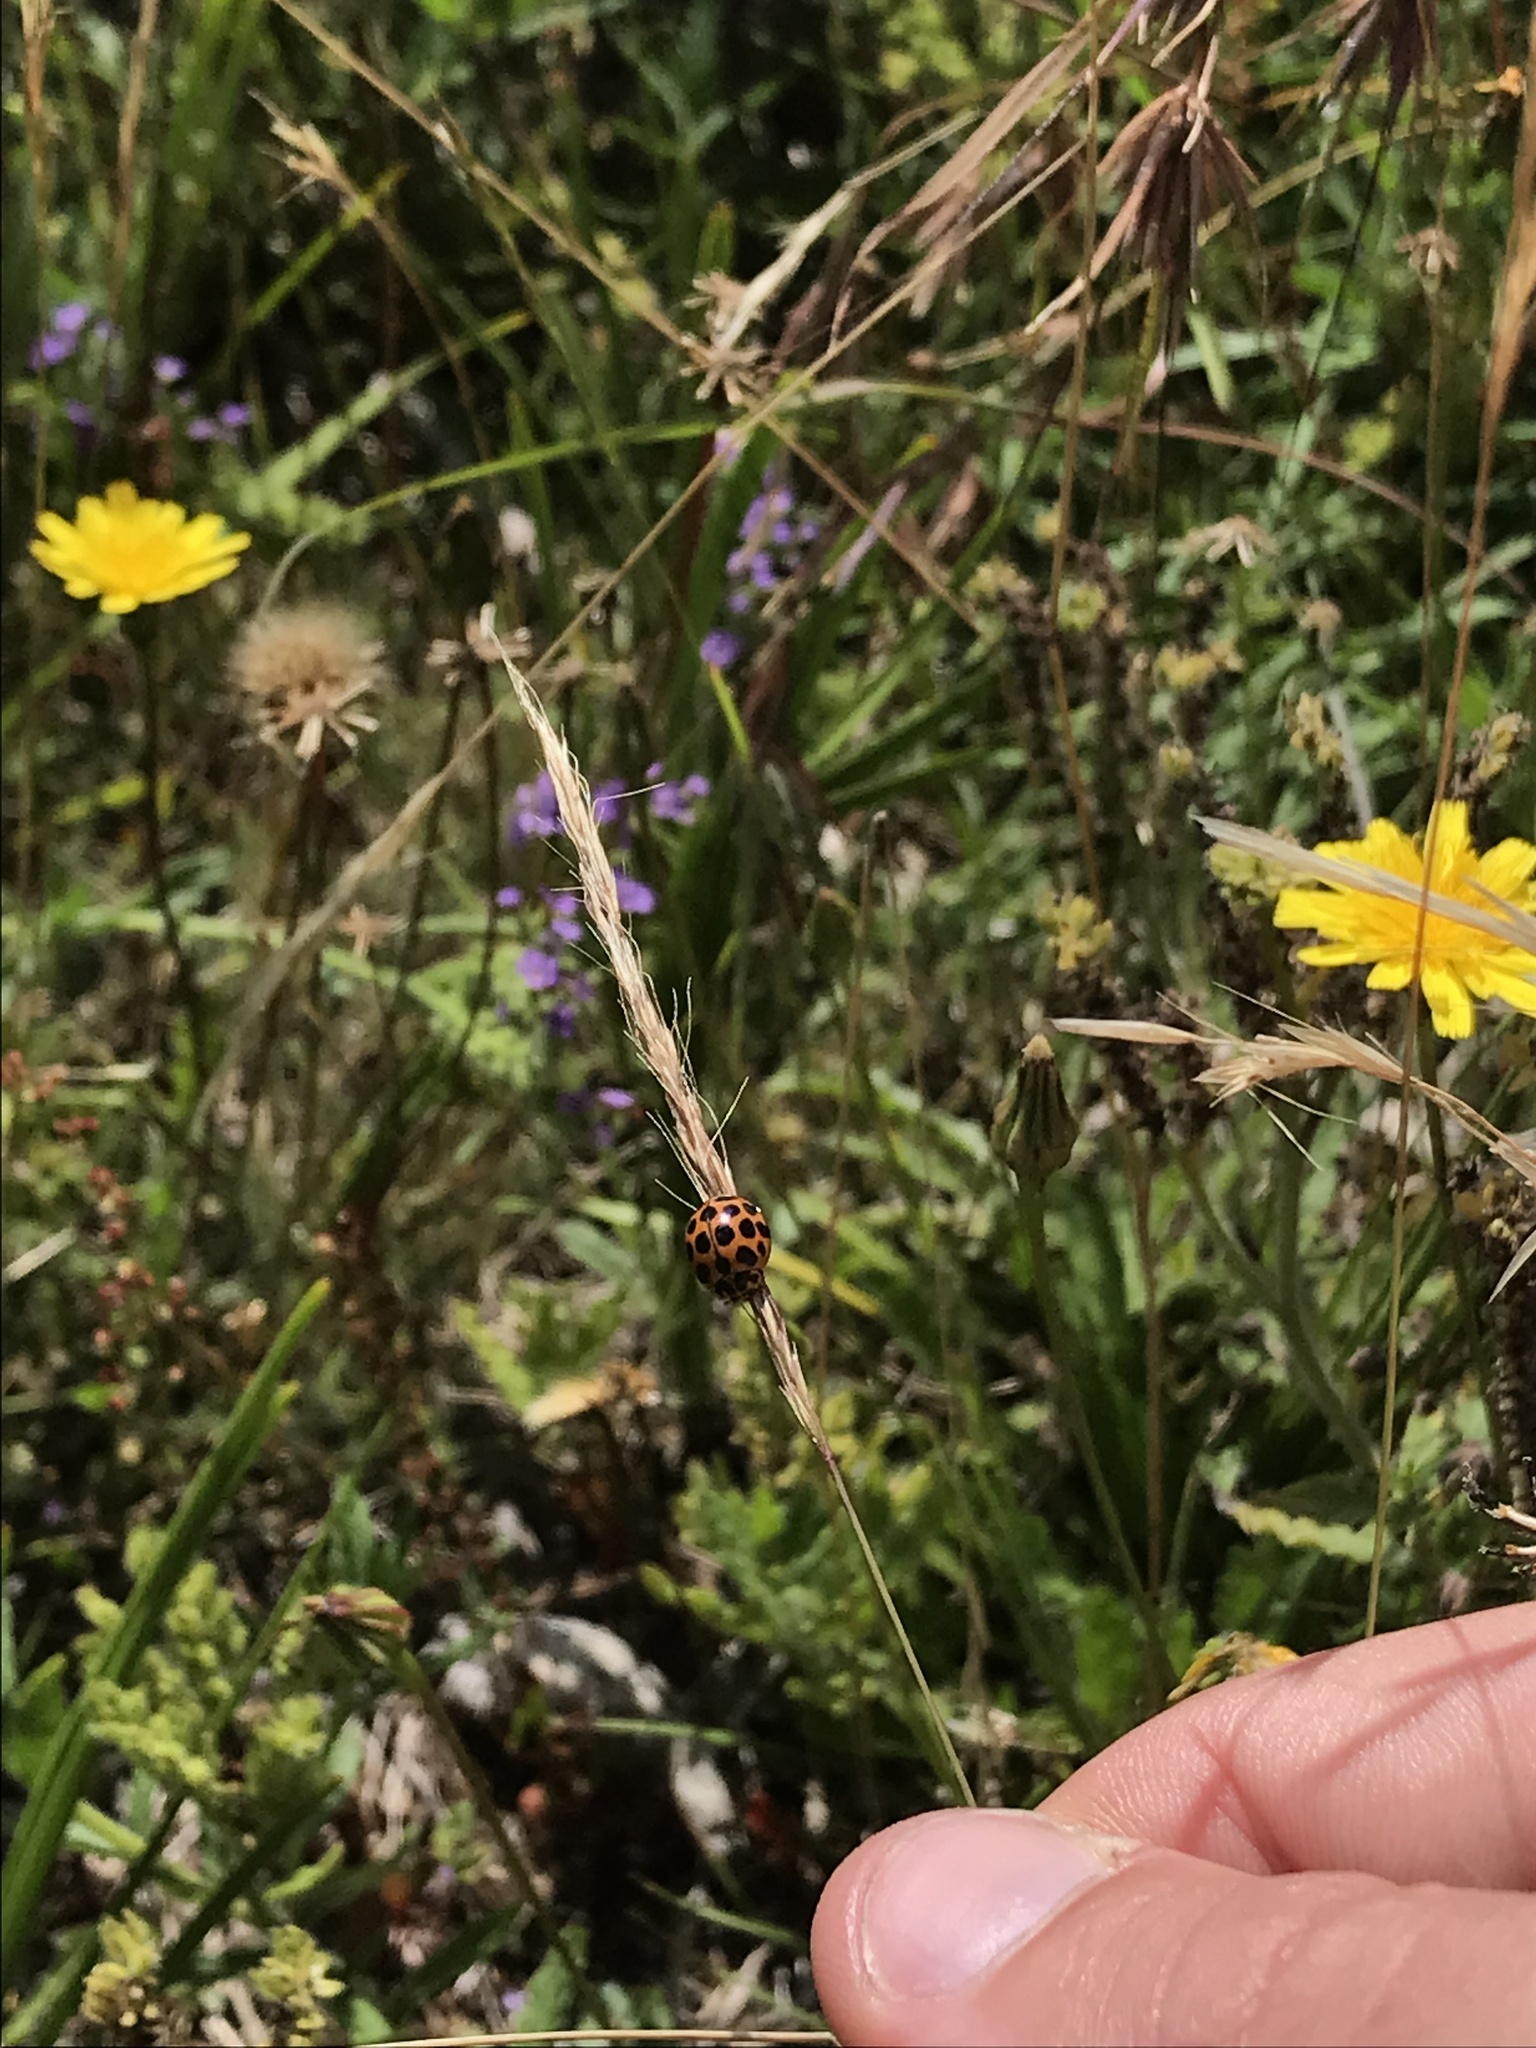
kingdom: Animalia
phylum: Arthropoda
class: Insecta
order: Coleoptera
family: Coccinellidae
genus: Harmonia
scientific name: Harmonia conformis
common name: Common spotted ladybird beetle
